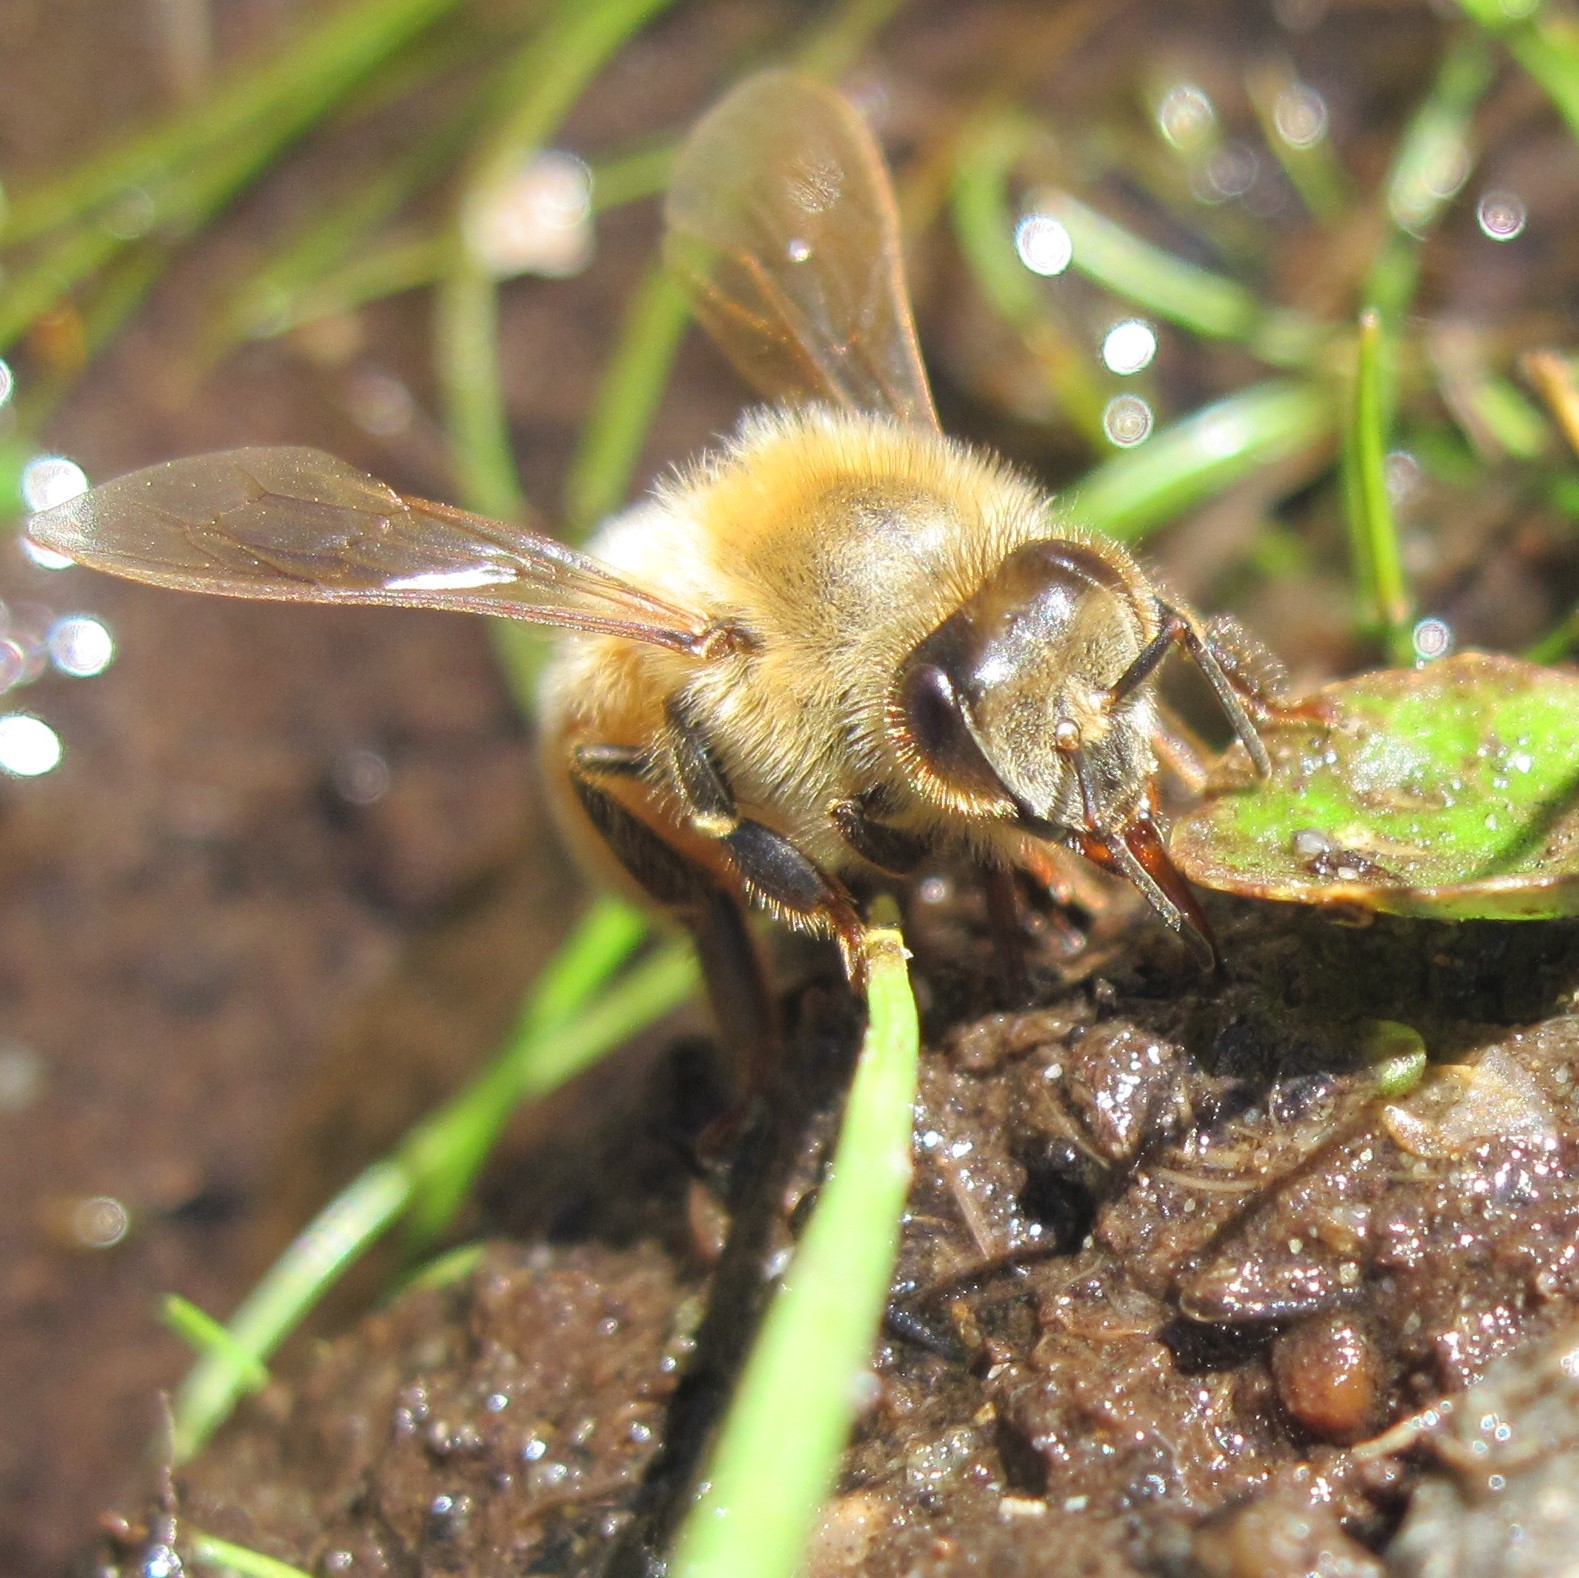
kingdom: Animalia
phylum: Arthropoda
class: Insecta
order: Hymenoptera
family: Apidae
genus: Apis
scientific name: Apis mellifera
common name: Honey bee
